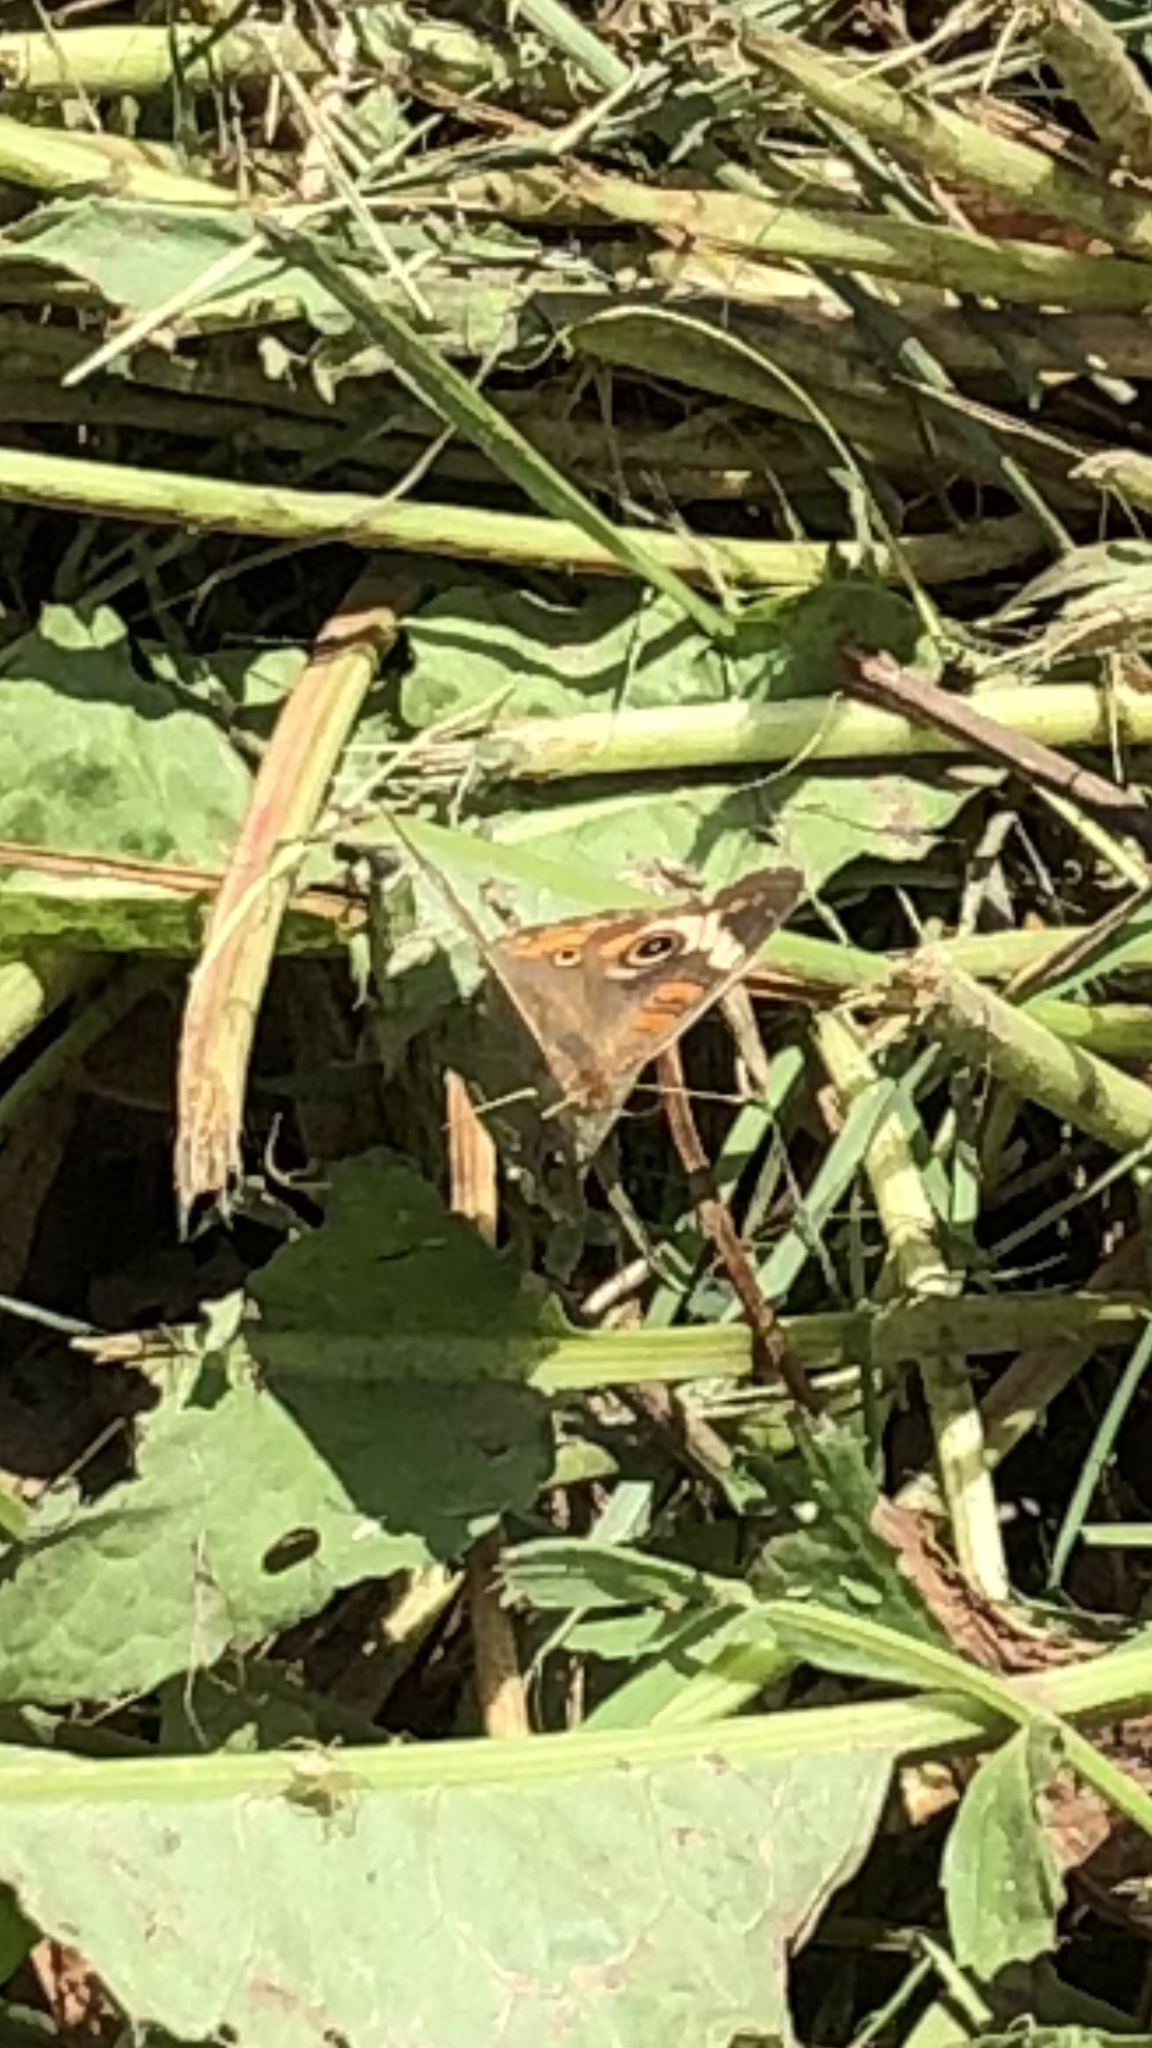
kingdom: Animalia
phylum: Arthropoda
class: Insecta
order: Lepidoptera
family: Nymphalidae
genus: Junonia
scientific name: Junonia coenia
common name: Common buckeye
